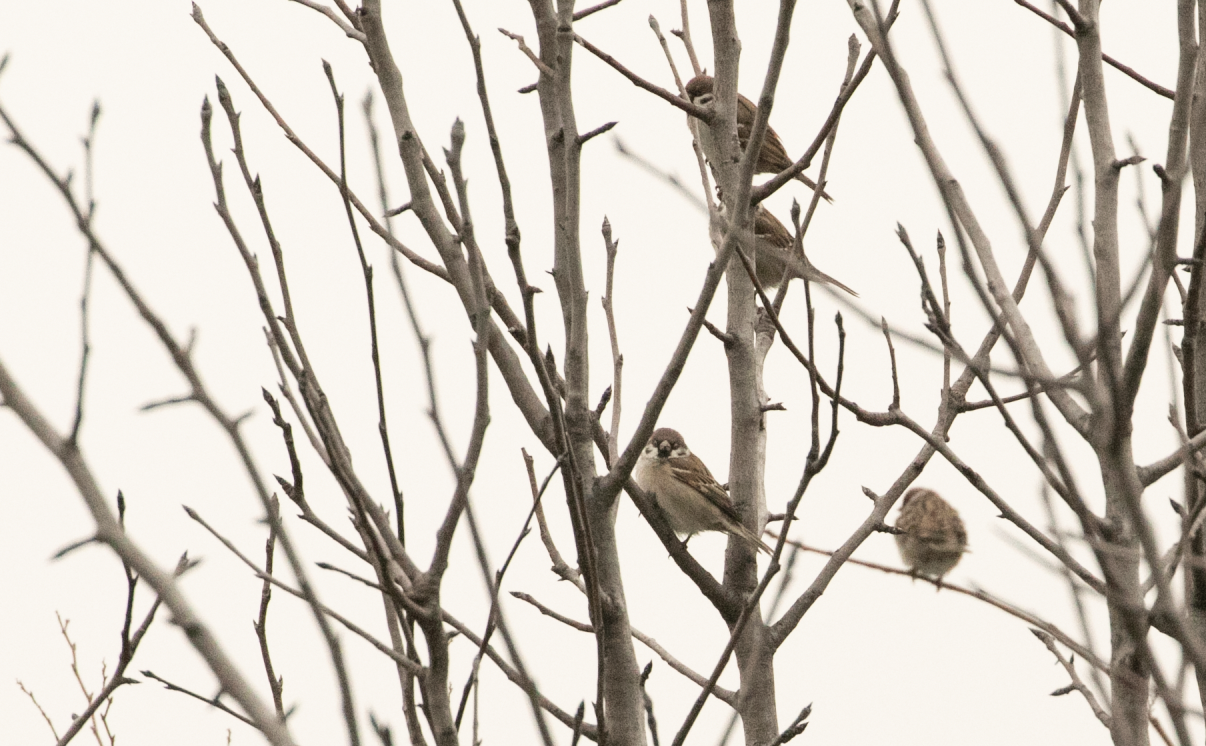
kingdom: Animalia
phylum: Chordata
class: Aves
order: Passeriformes
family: Passeridae
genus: Passer
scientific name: Passer montanus
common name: Eurasian tree sparrow
